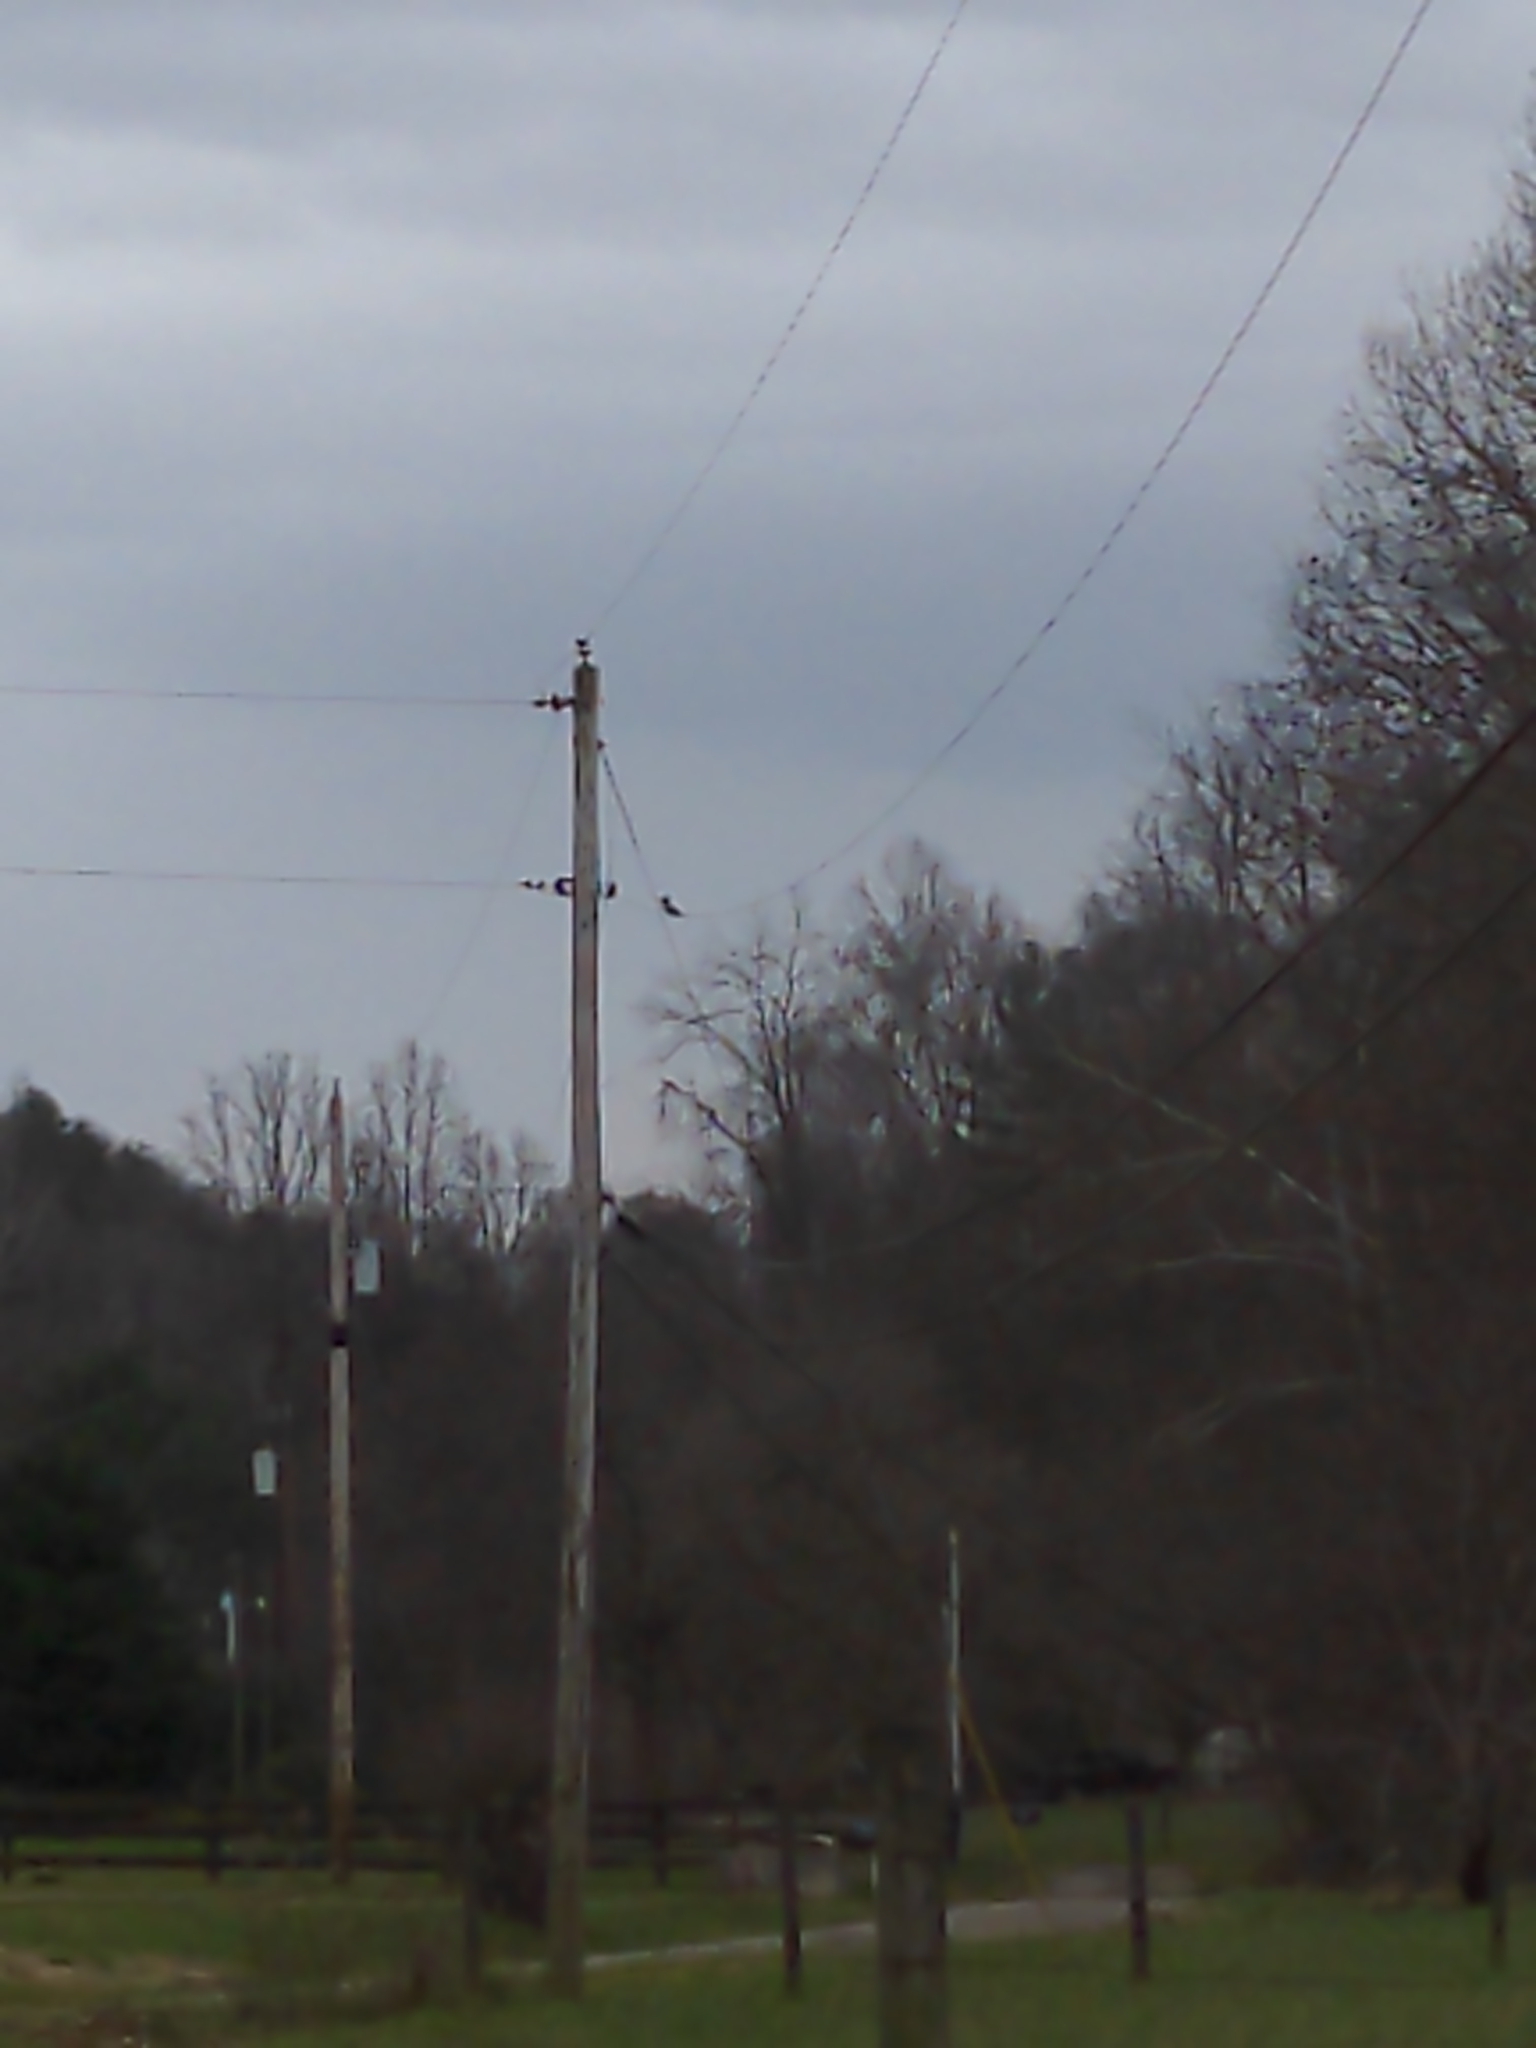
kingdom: Animalia
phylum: Chordata
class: Aves
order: Coraciiformes
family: Alcedinidae
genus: Megaceryle
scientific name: Megaceryle alcyon
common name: Belted kingfisher
